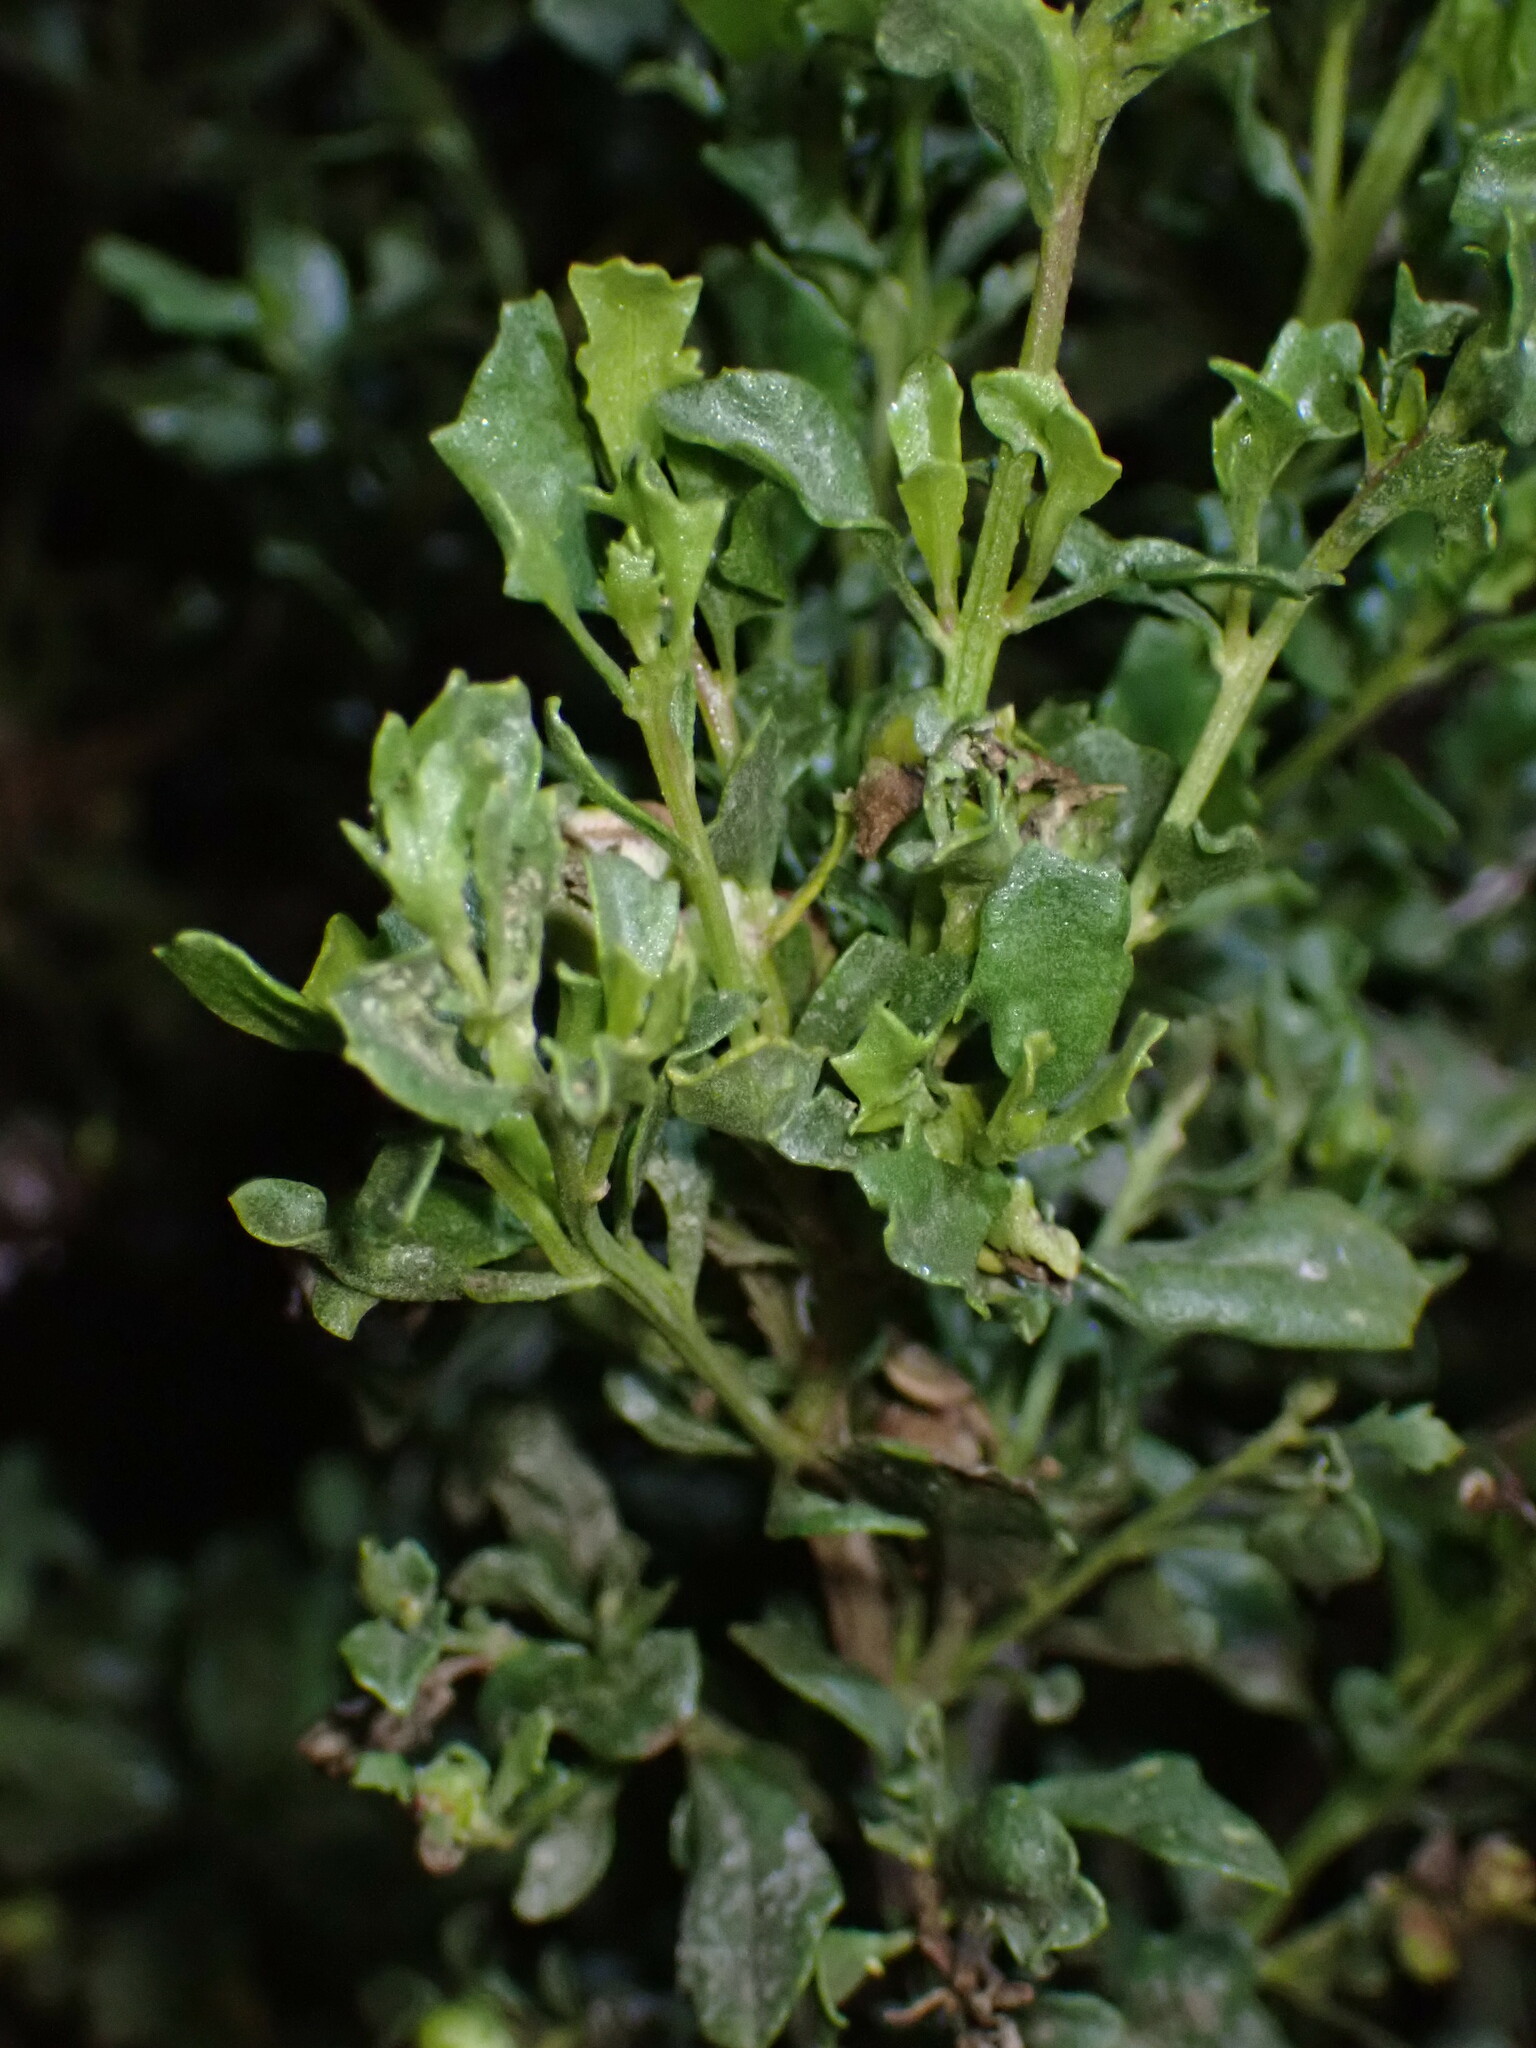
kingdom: Plantae
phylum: Tracheophyta
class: Magnoliopsida
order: Asterales
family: Asteraceae
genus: Baccharis
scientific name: Baccharis pilularis
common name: Coyotebrush
